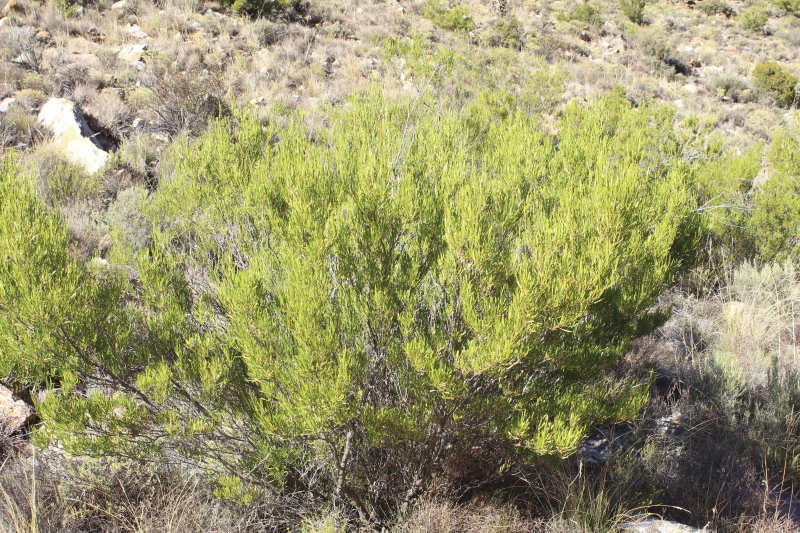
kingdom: Plantae
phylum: Tracheophyta
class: Magnoliopsida
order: Sapindales
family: Sapindaceae
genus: Dodonaea
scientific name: Dodonaea viscosa
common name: Hopbush
